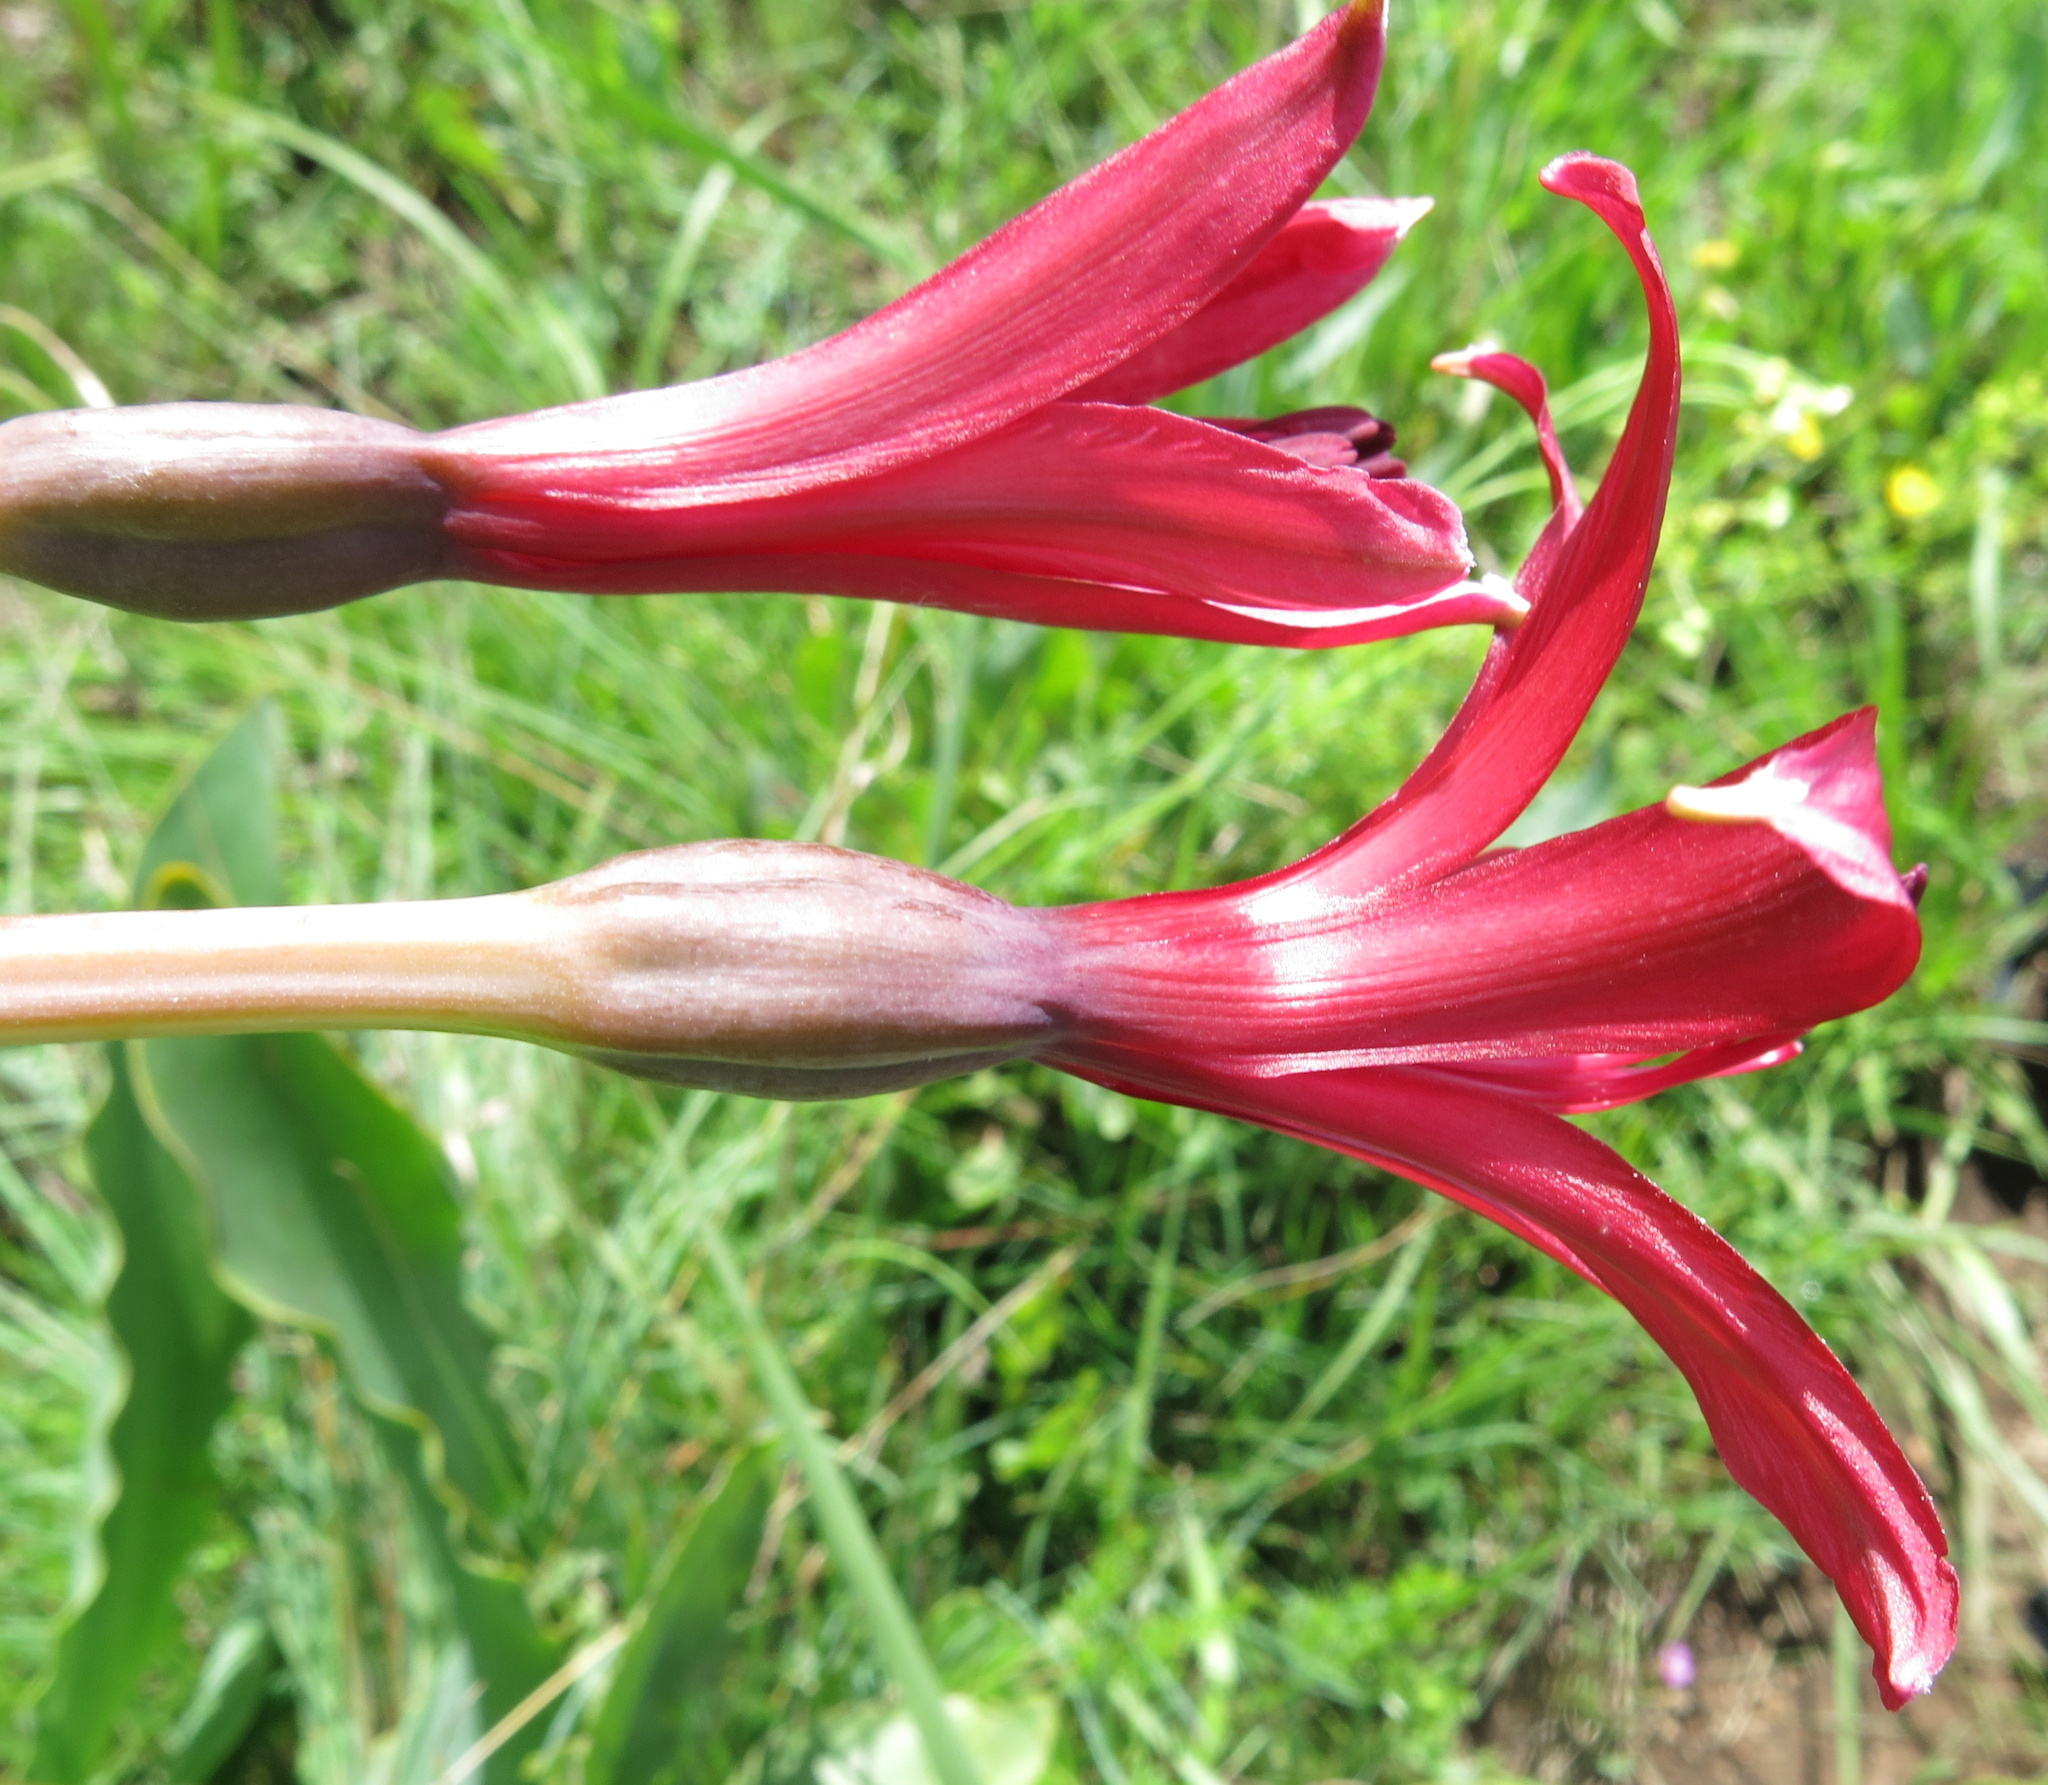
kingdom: Plantae
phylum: Tracheophyta
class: Liliopsida
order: Asparagales
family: Amaryllidaceae
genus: Brunsvigia
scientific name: Brunsvigia undulata
